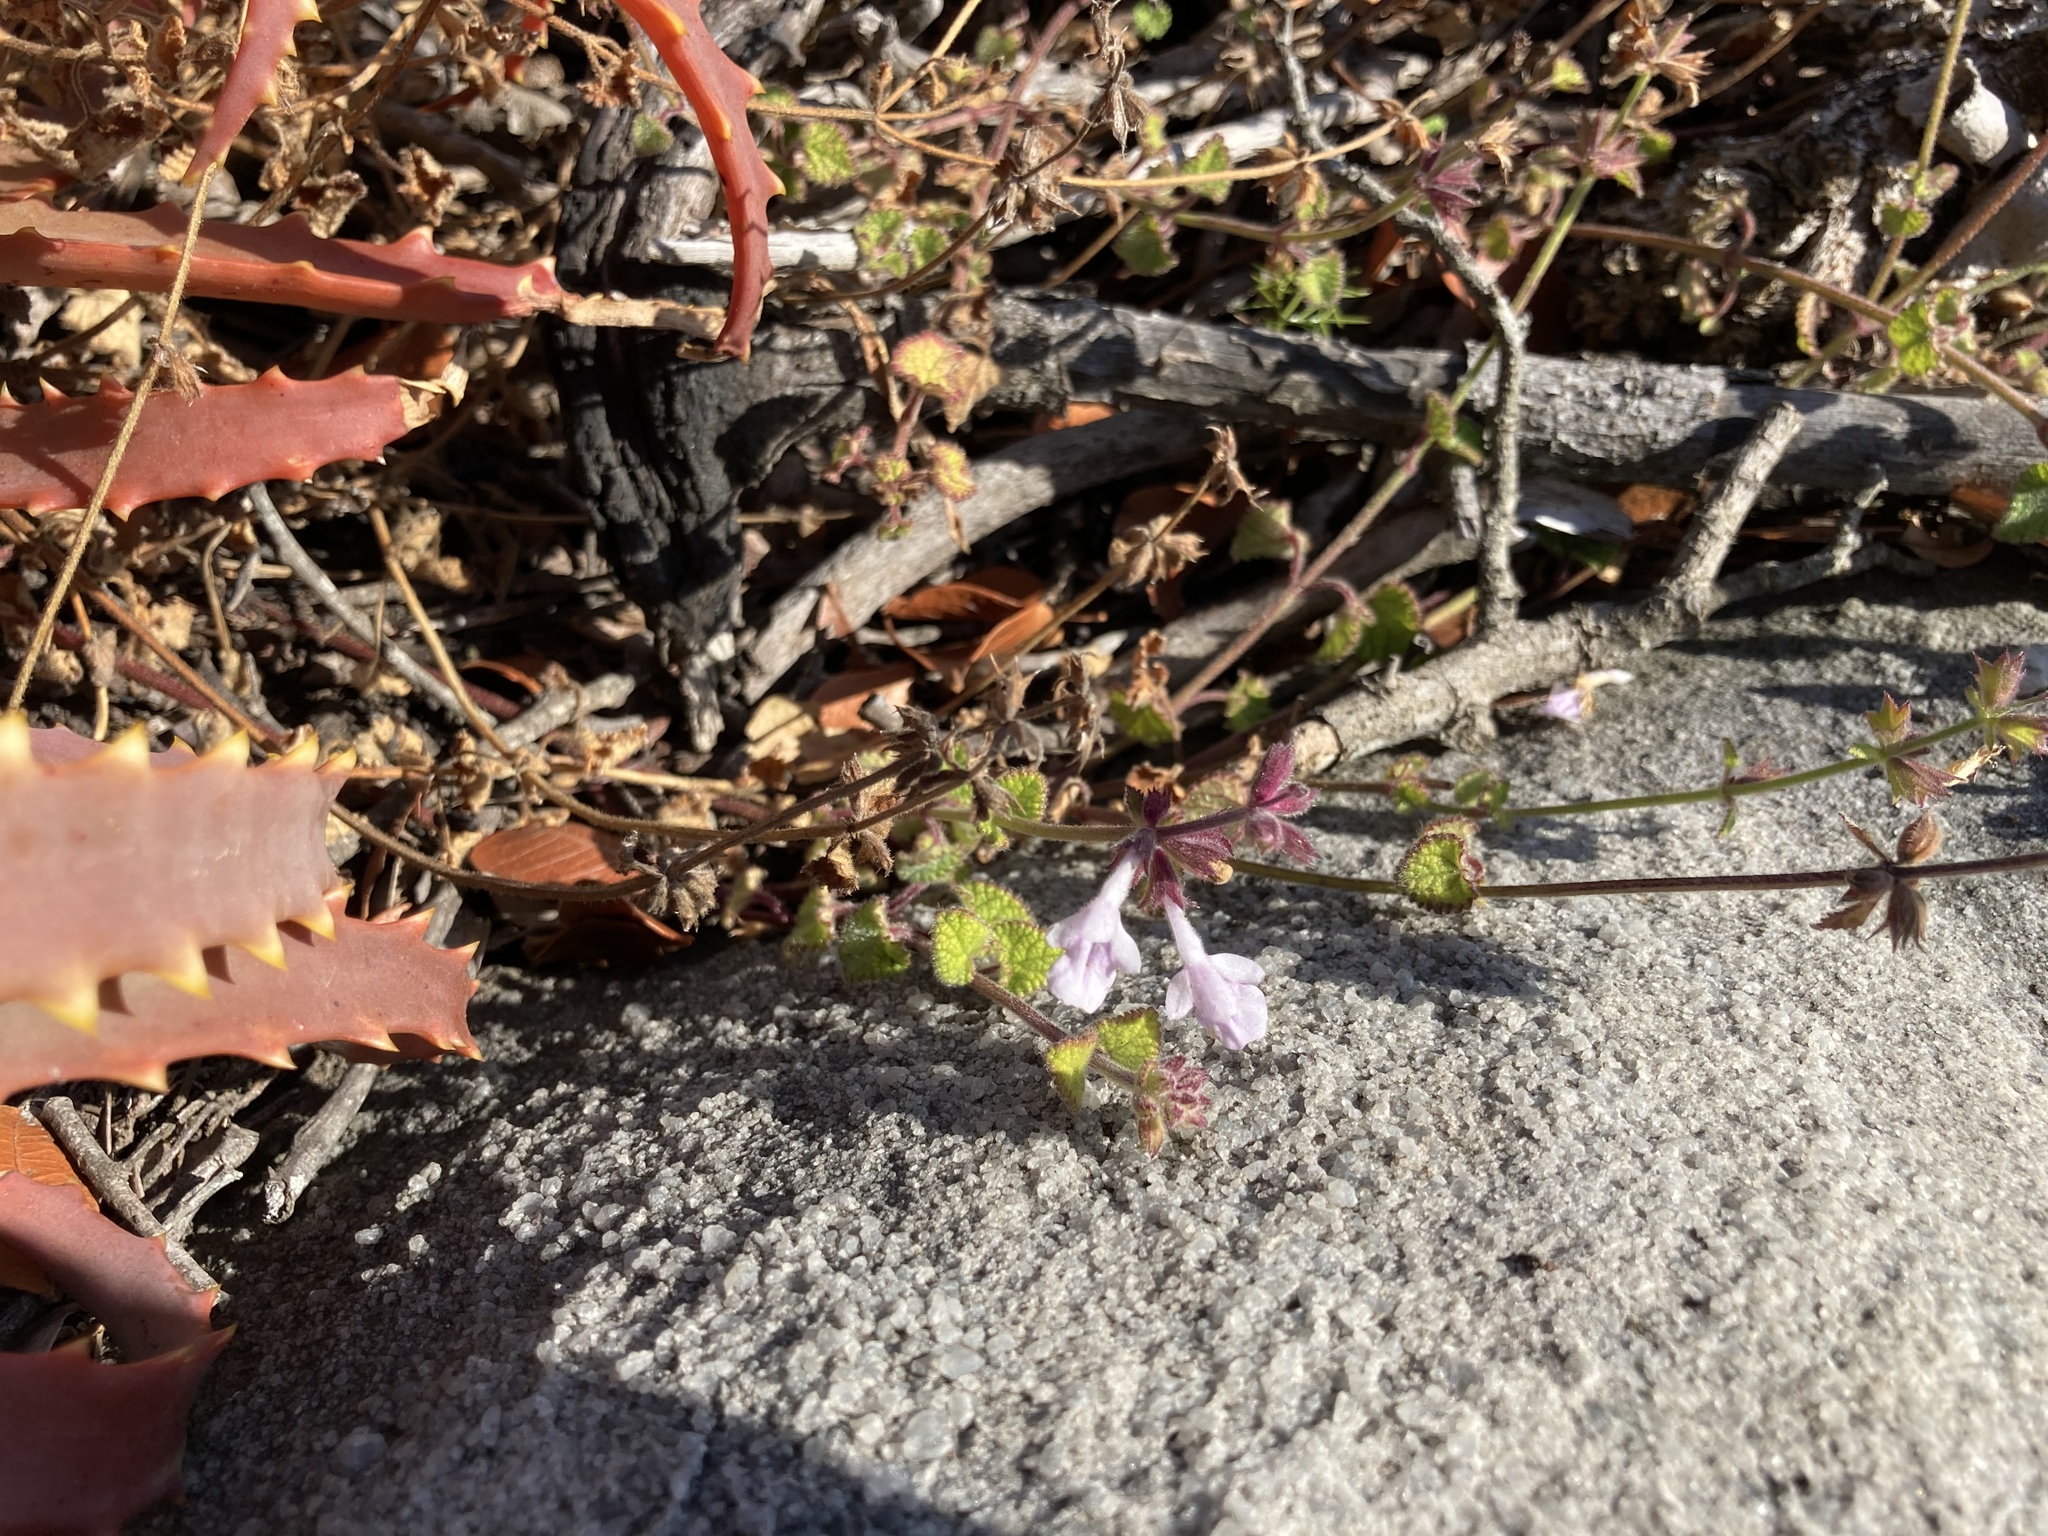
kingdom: Plantae
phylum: Tracheophyta
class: Magnoliopsida
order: Lamiales
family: Lamiaceae
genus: Stachys
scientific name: Stachys reticulata
